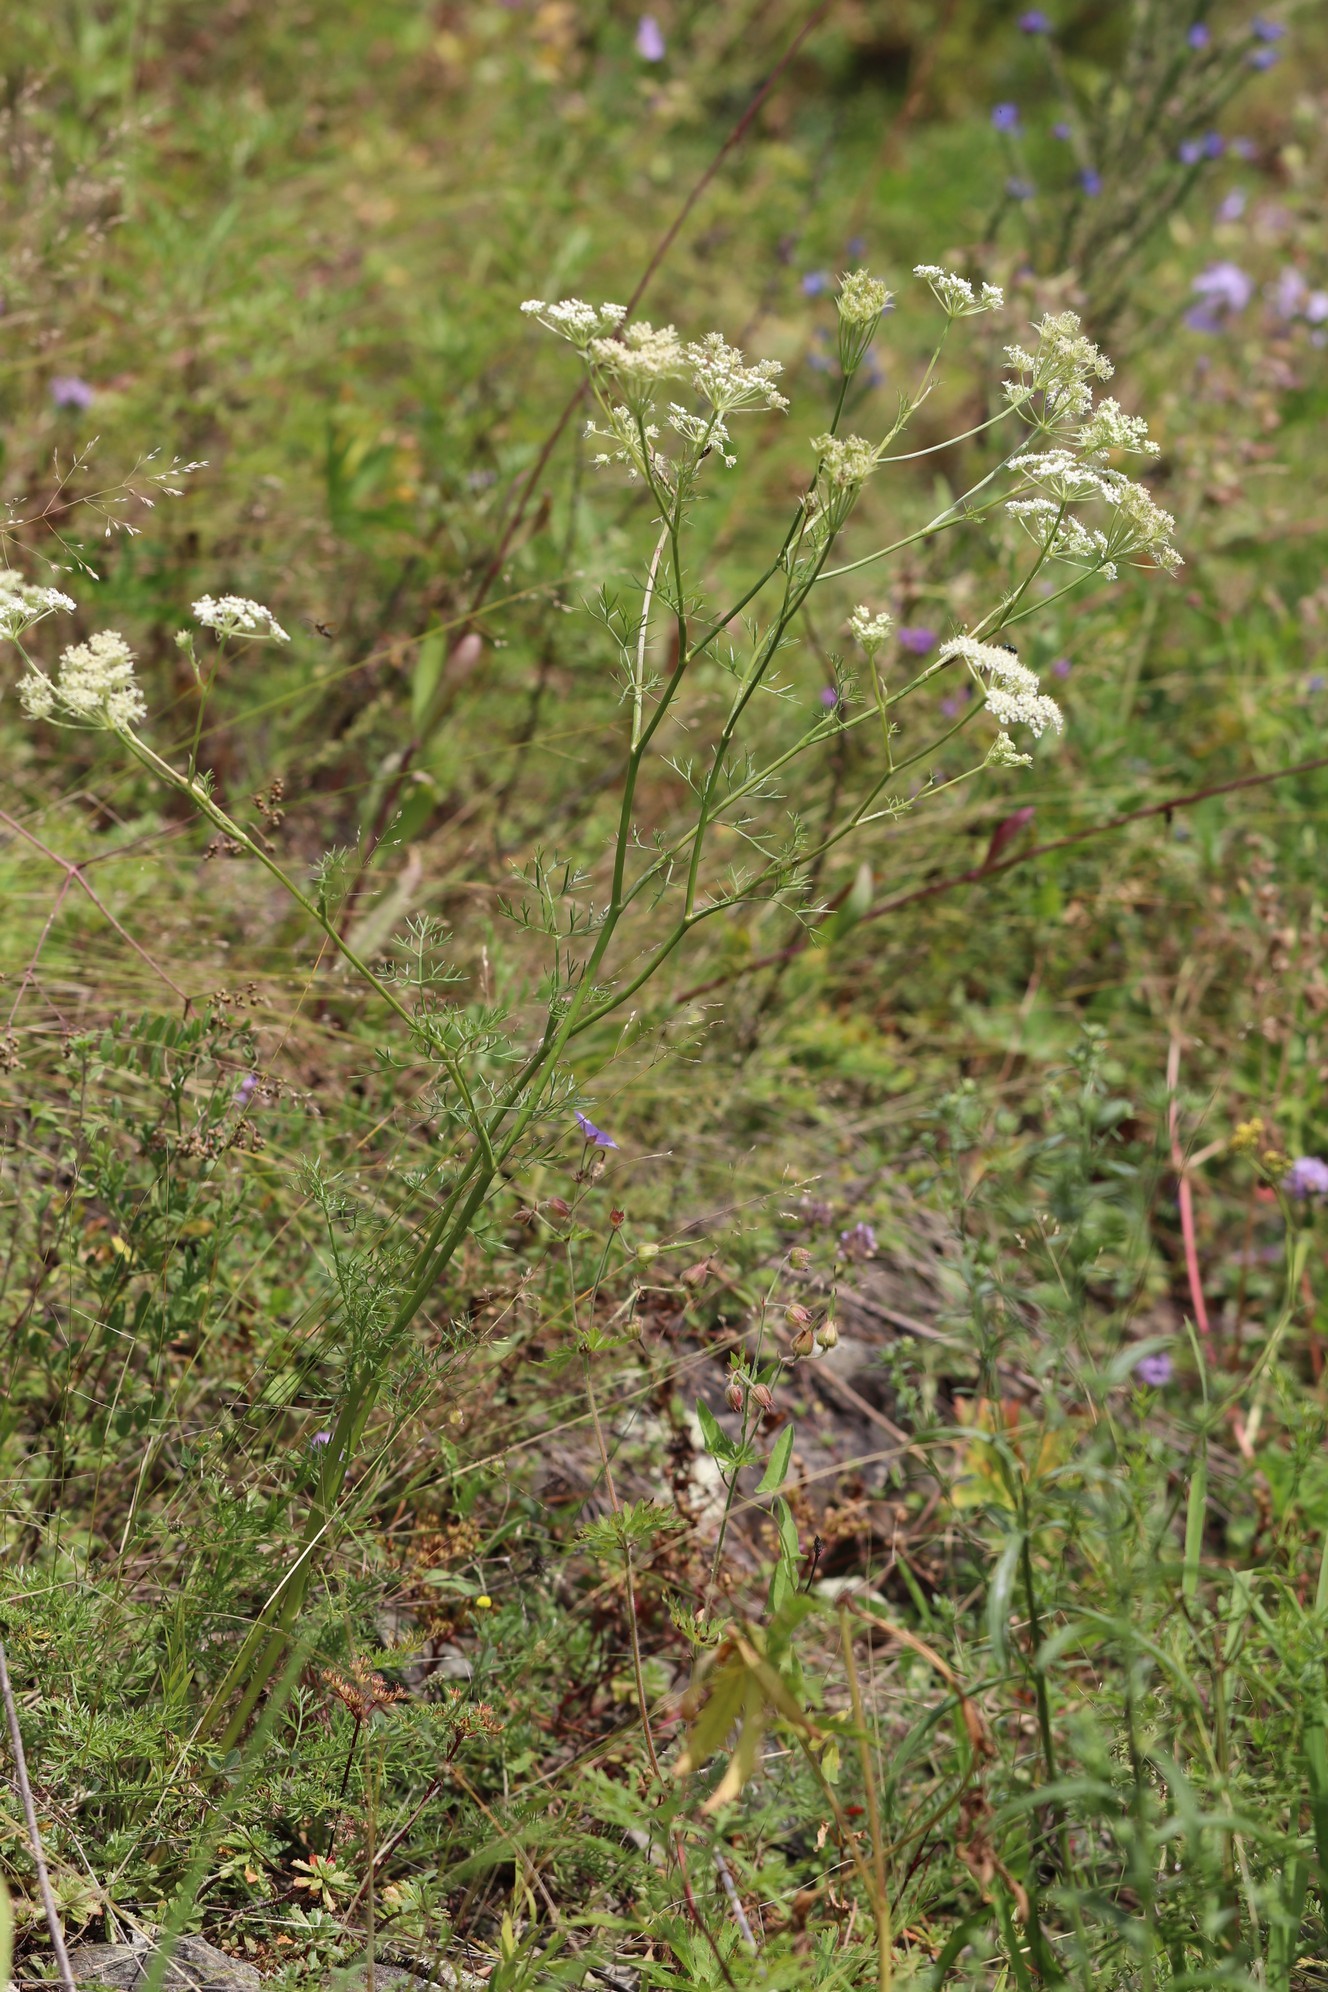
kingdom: Plantae
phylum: Tracheophyta
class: Magnoliopsida
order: Apiales
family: Apiaceae
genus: Kitagawia
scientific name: Kitagawia baicalensis
